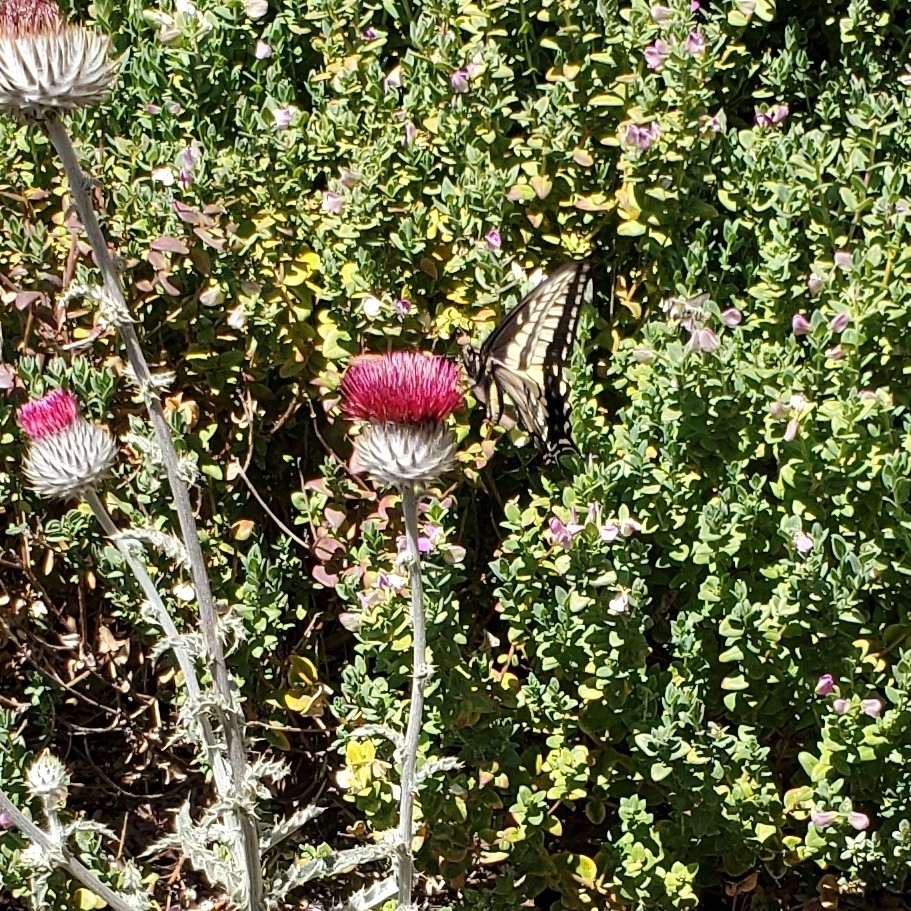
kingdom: Animalia
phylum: Arthropoda
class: Insecta
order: Lepidoptera
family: Papilionidae
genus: Papilio
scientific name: Papilio zelicaon
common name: Anise swallowtail
